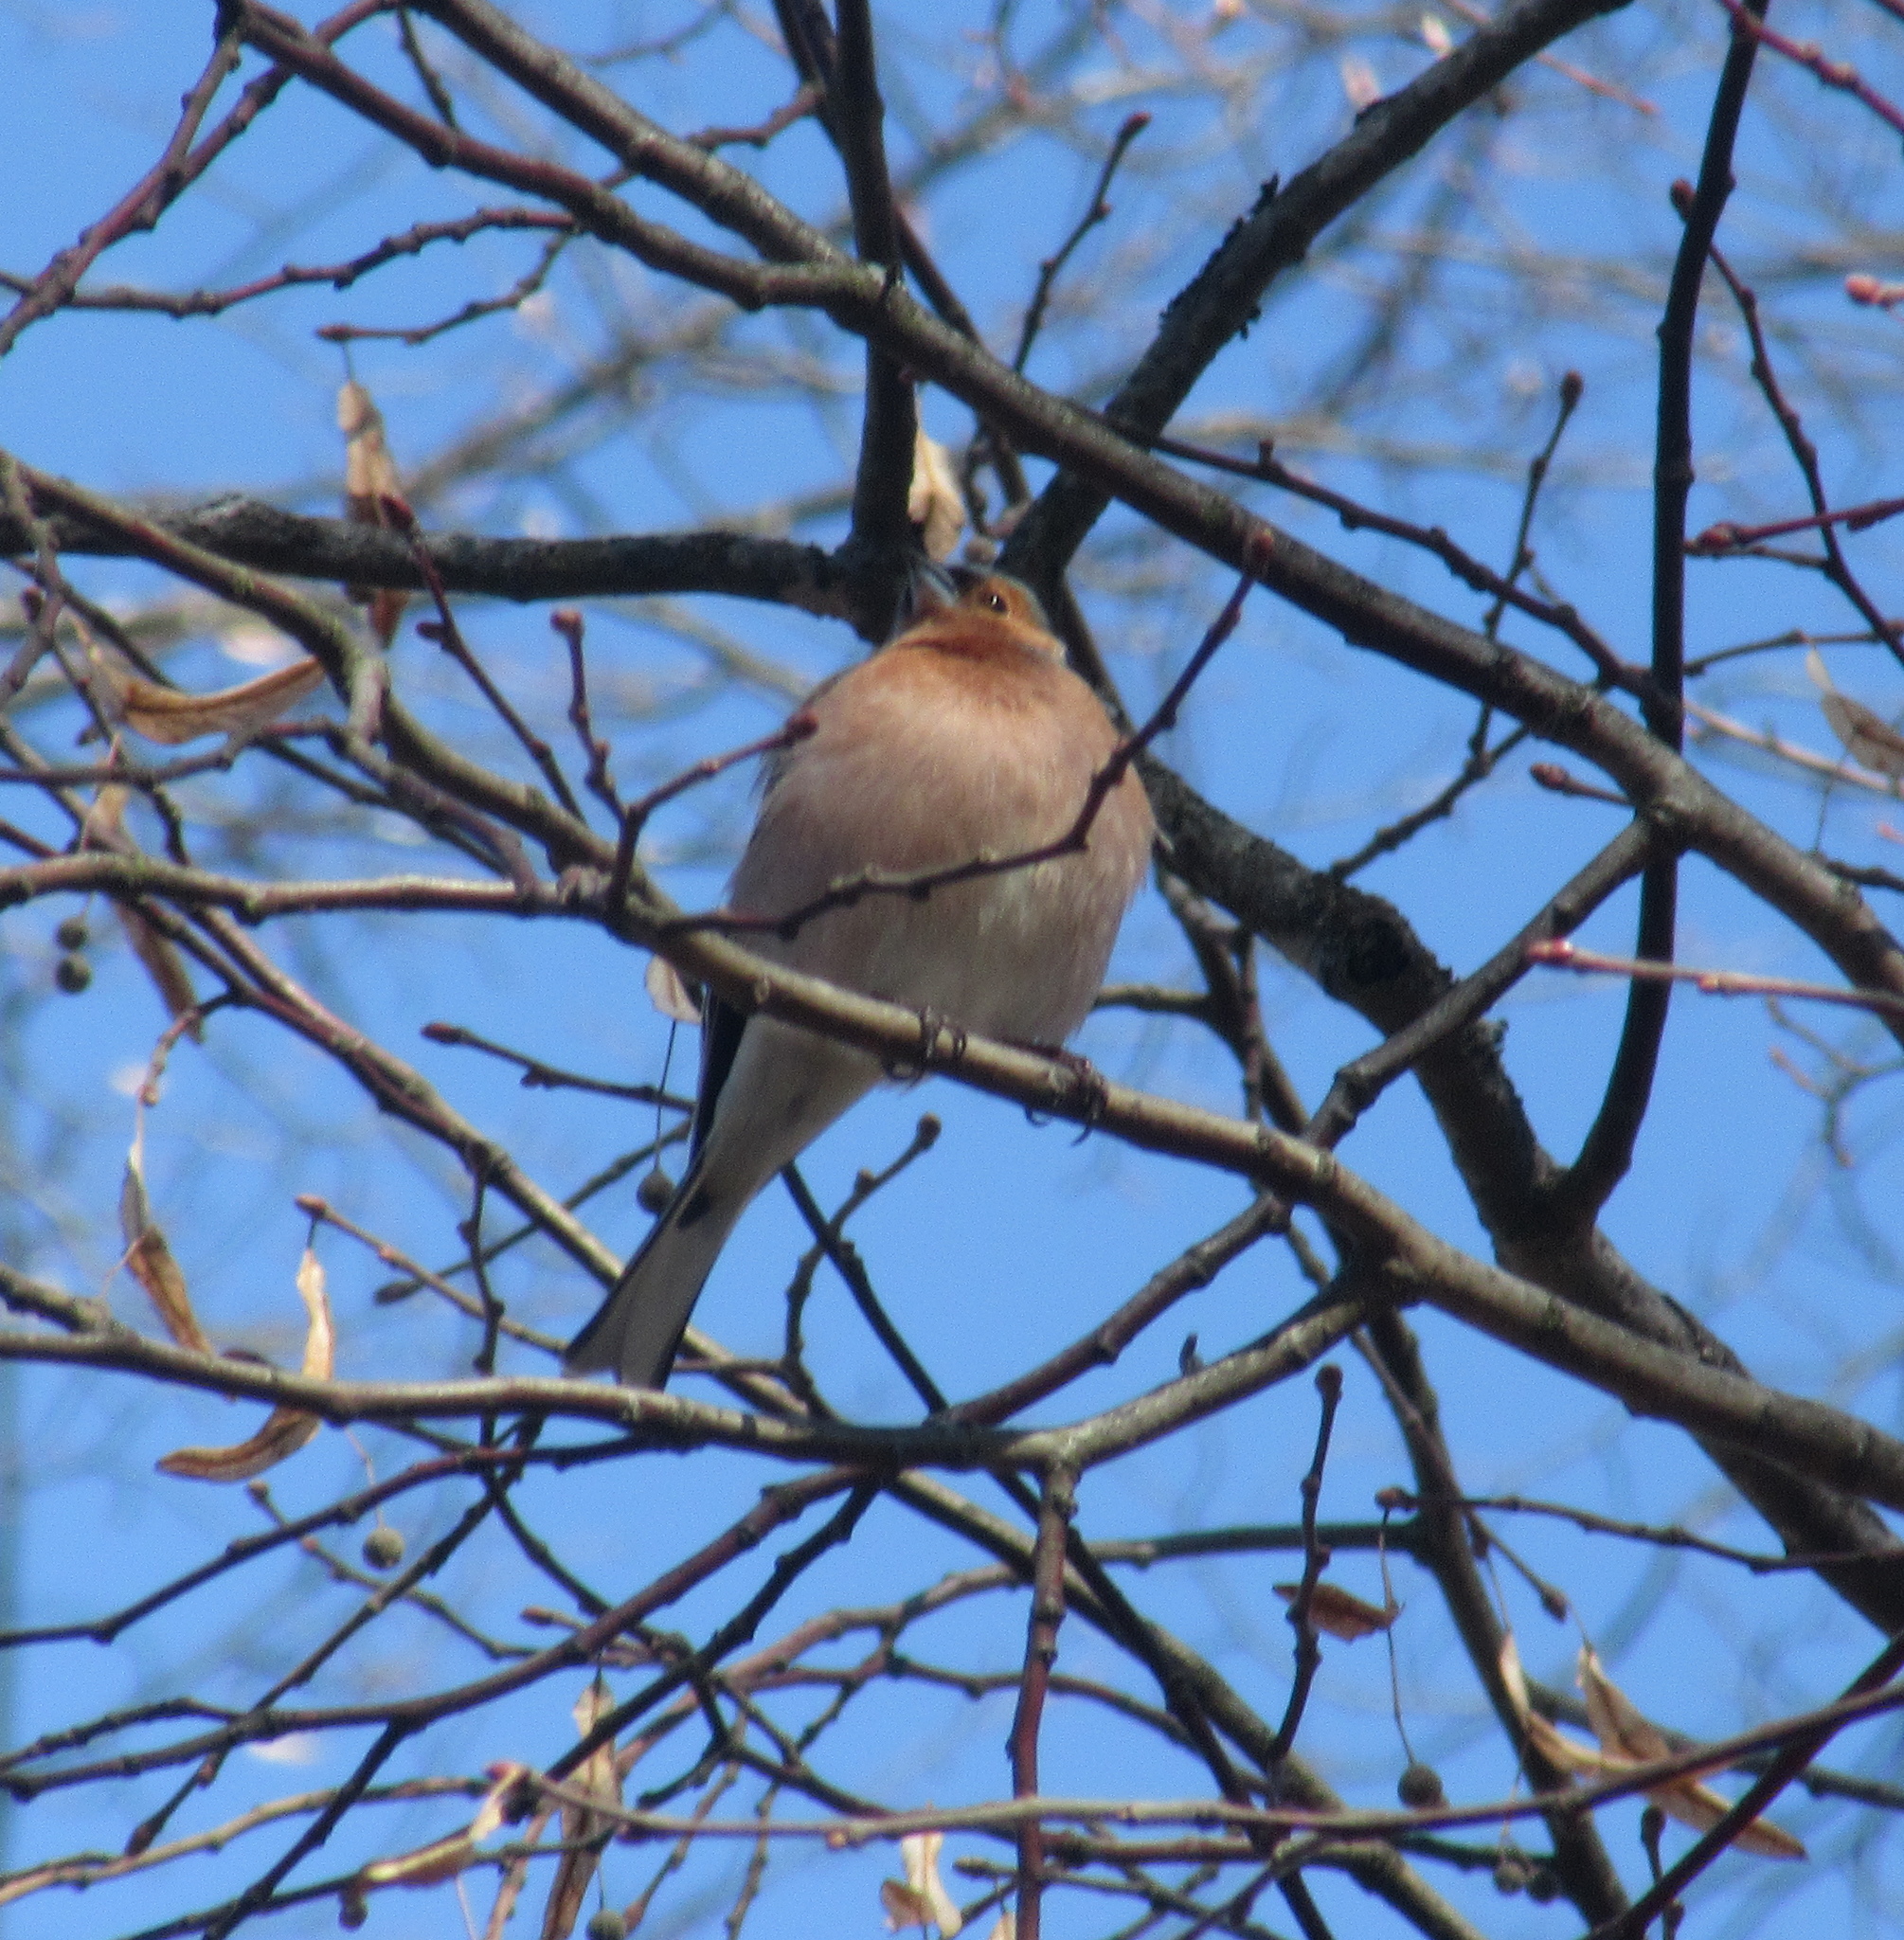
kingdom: Animalia
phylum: Chordata
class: Aves
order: Passeriformes
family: Fringillidae
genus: Fringilla
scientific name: Fringilla coelebs
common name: Common chaffinch
